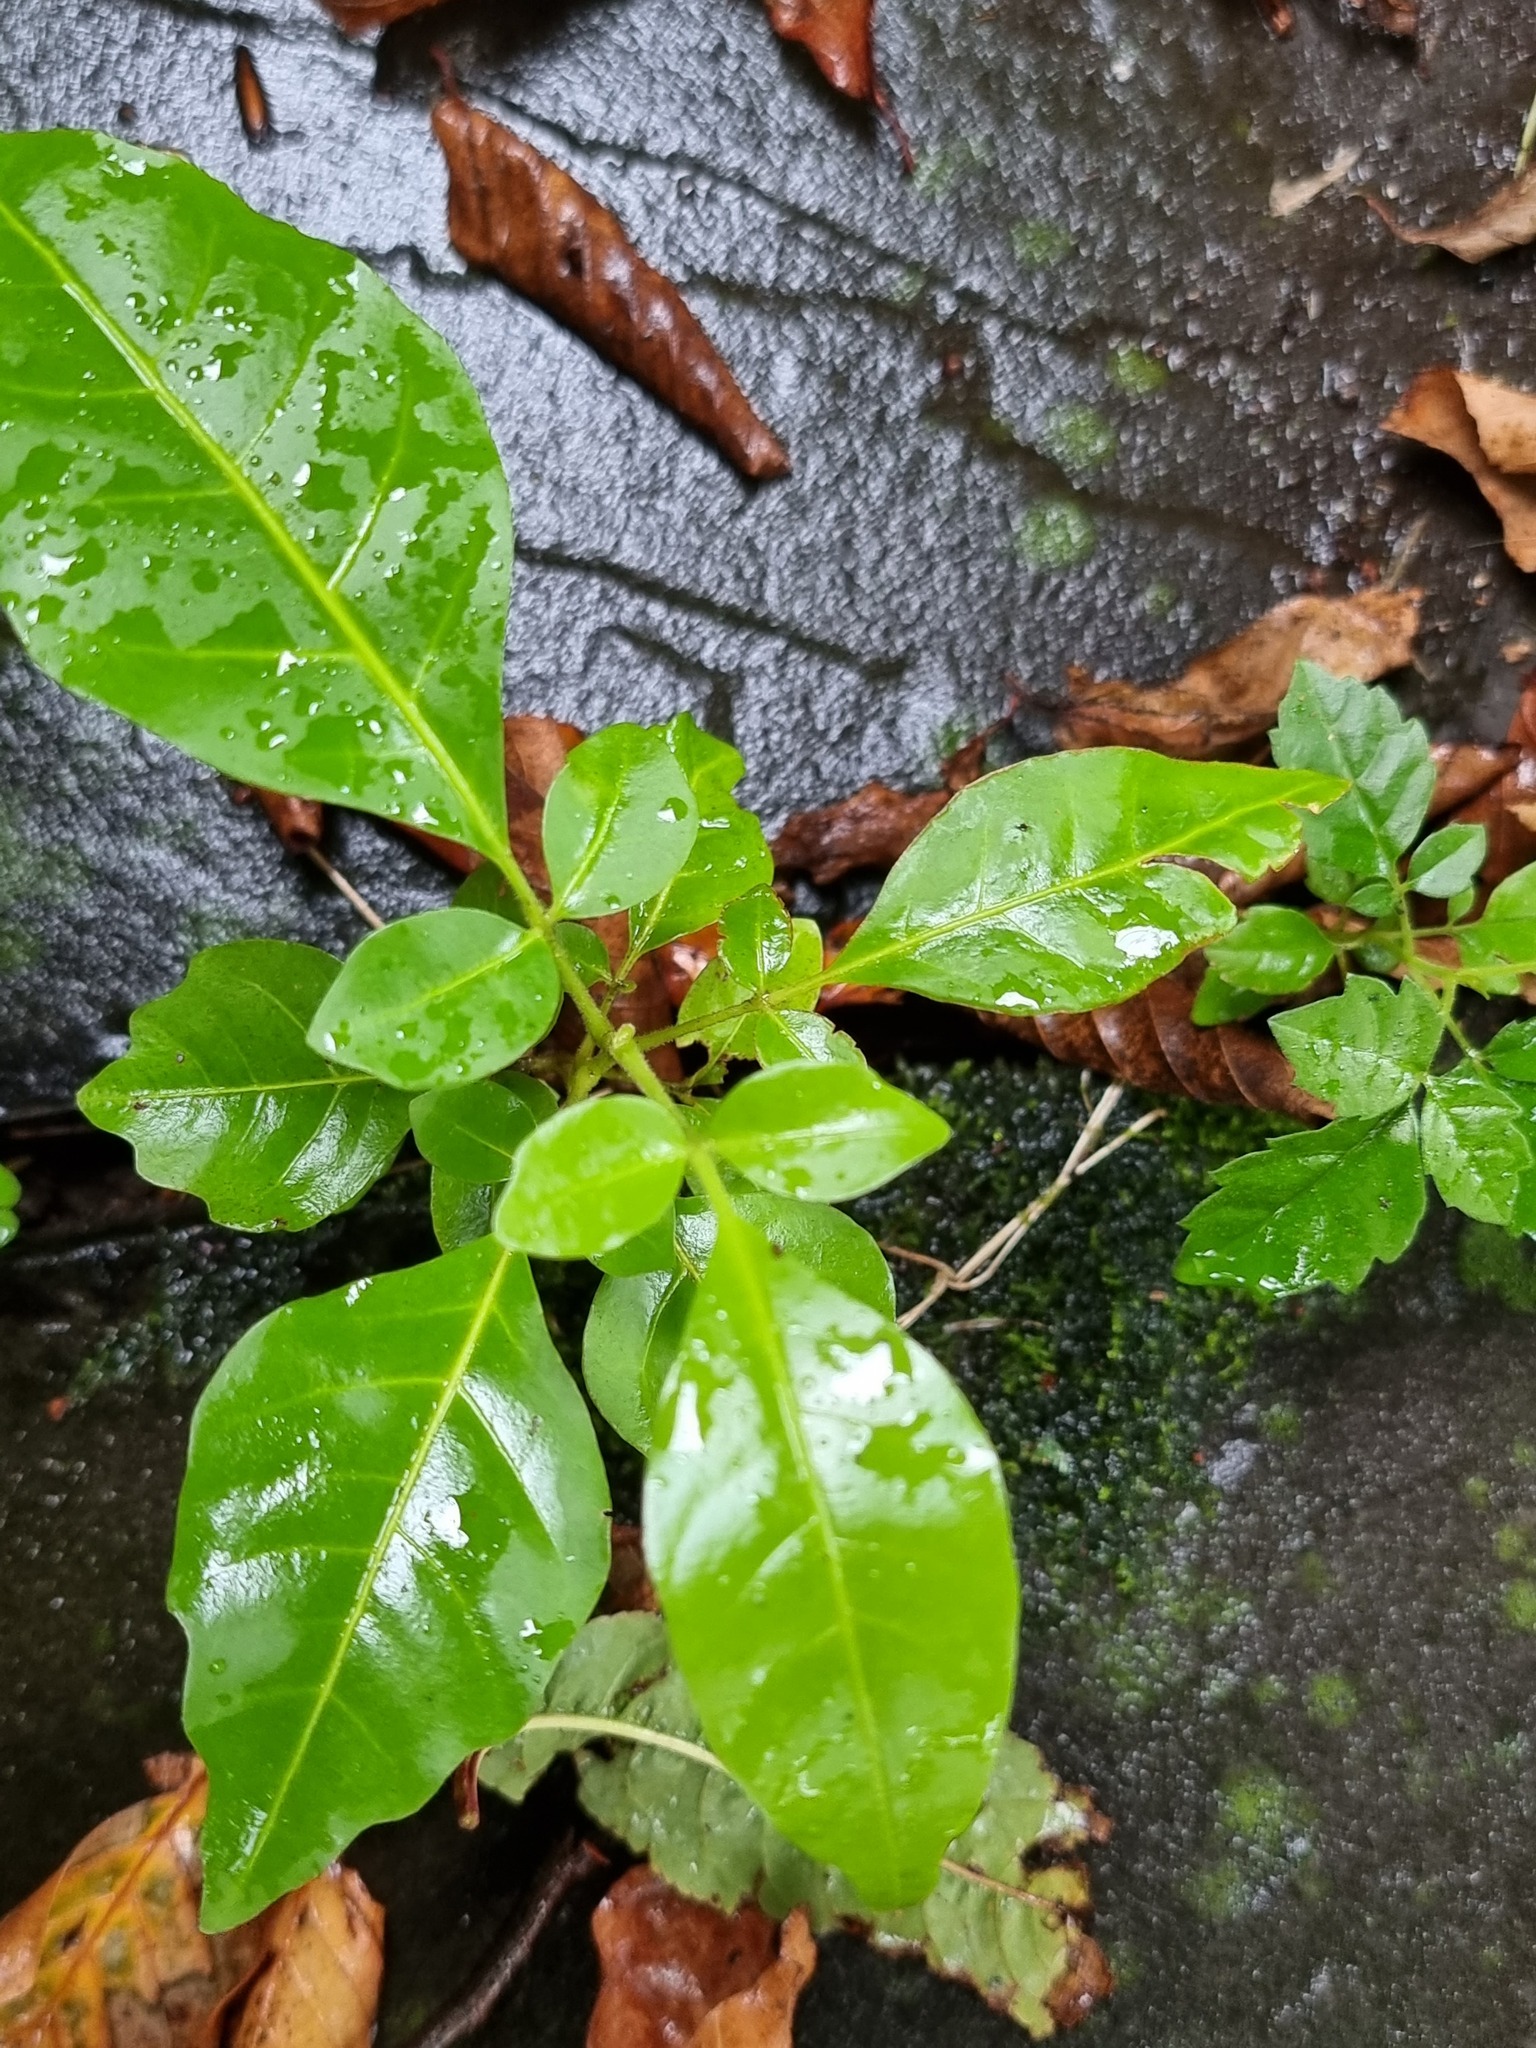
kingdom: Plantae
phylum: Tracheophyta
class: Magnoliopsida
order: Sapindales
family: Meliaceae
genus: Didymocheton
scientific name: Didymocheton spectabilis
